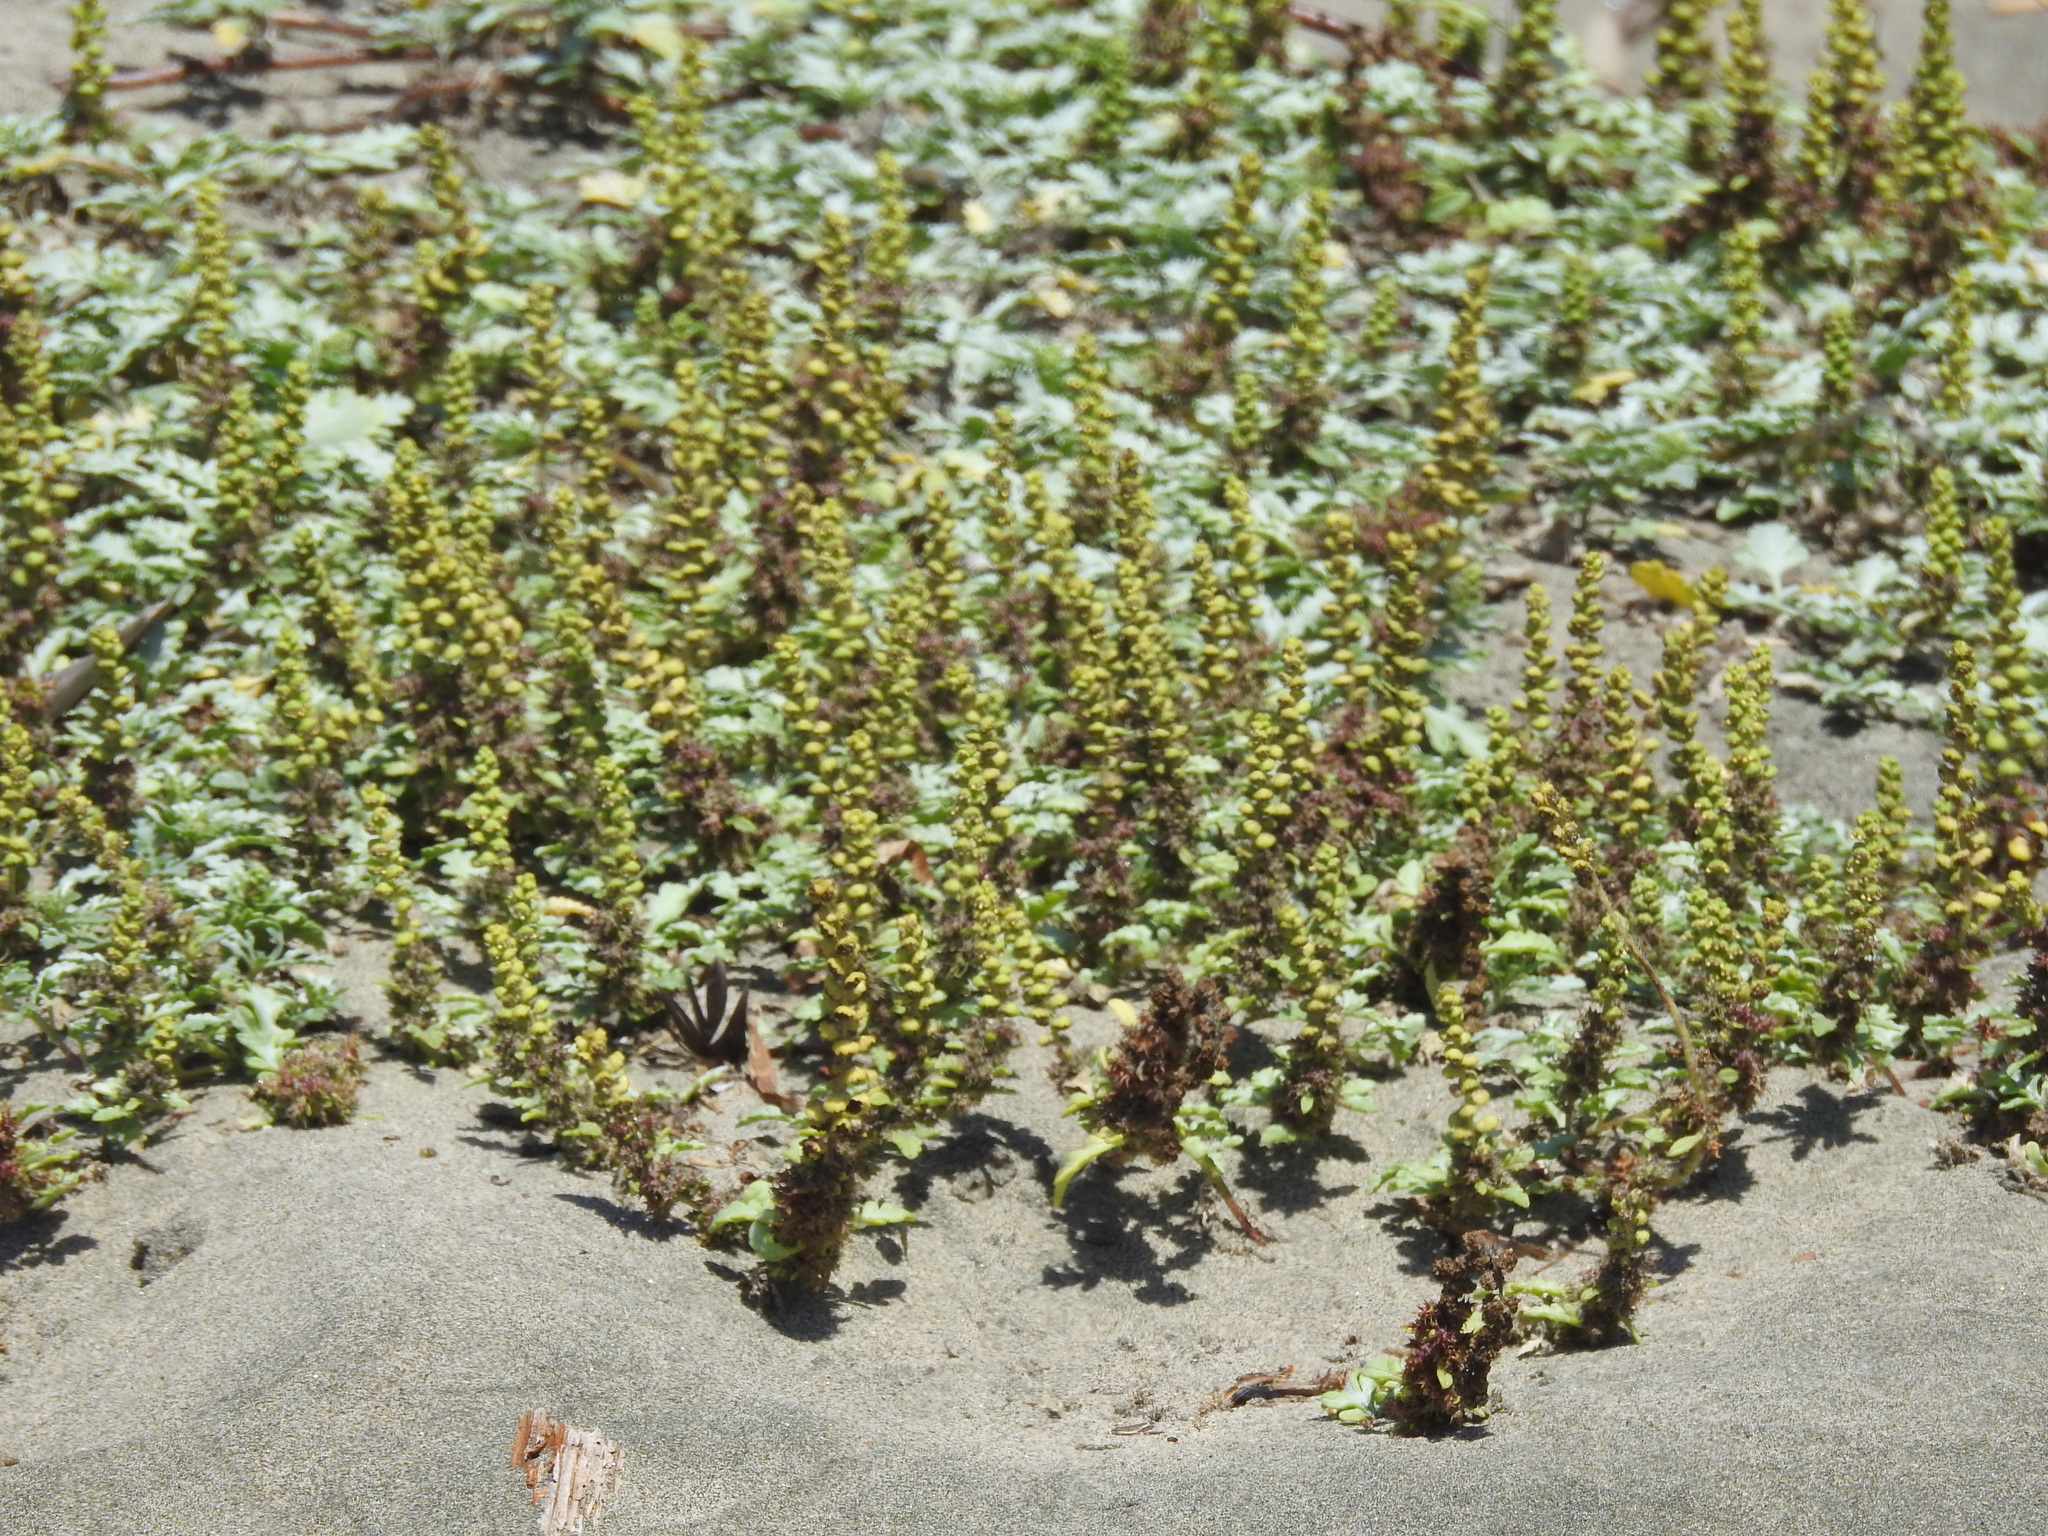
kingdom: Plantae
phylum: Tracheophyta
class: Magnoliopsida
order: Asterales
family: Asteraceae
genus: Ambrosia
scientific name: Ambrosia chamissonis
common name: Beachbur
